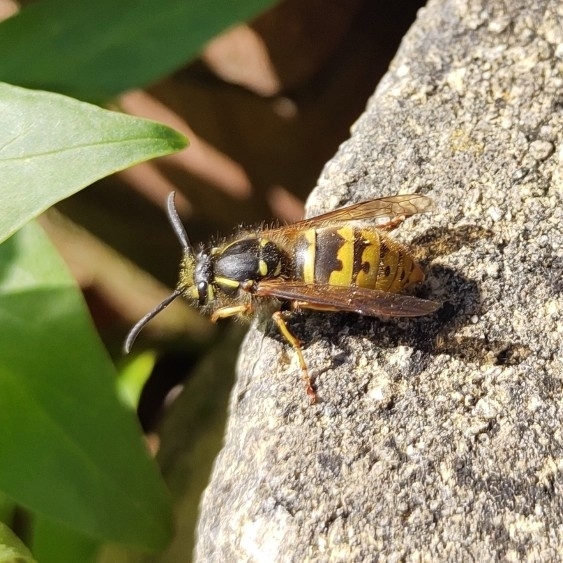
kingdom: Animalia
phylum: Arthropoda
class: Insecta
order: Hymenoptera
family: Vespidae
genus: Vespula
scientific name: Vespula vulgaris
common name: Common wasp
